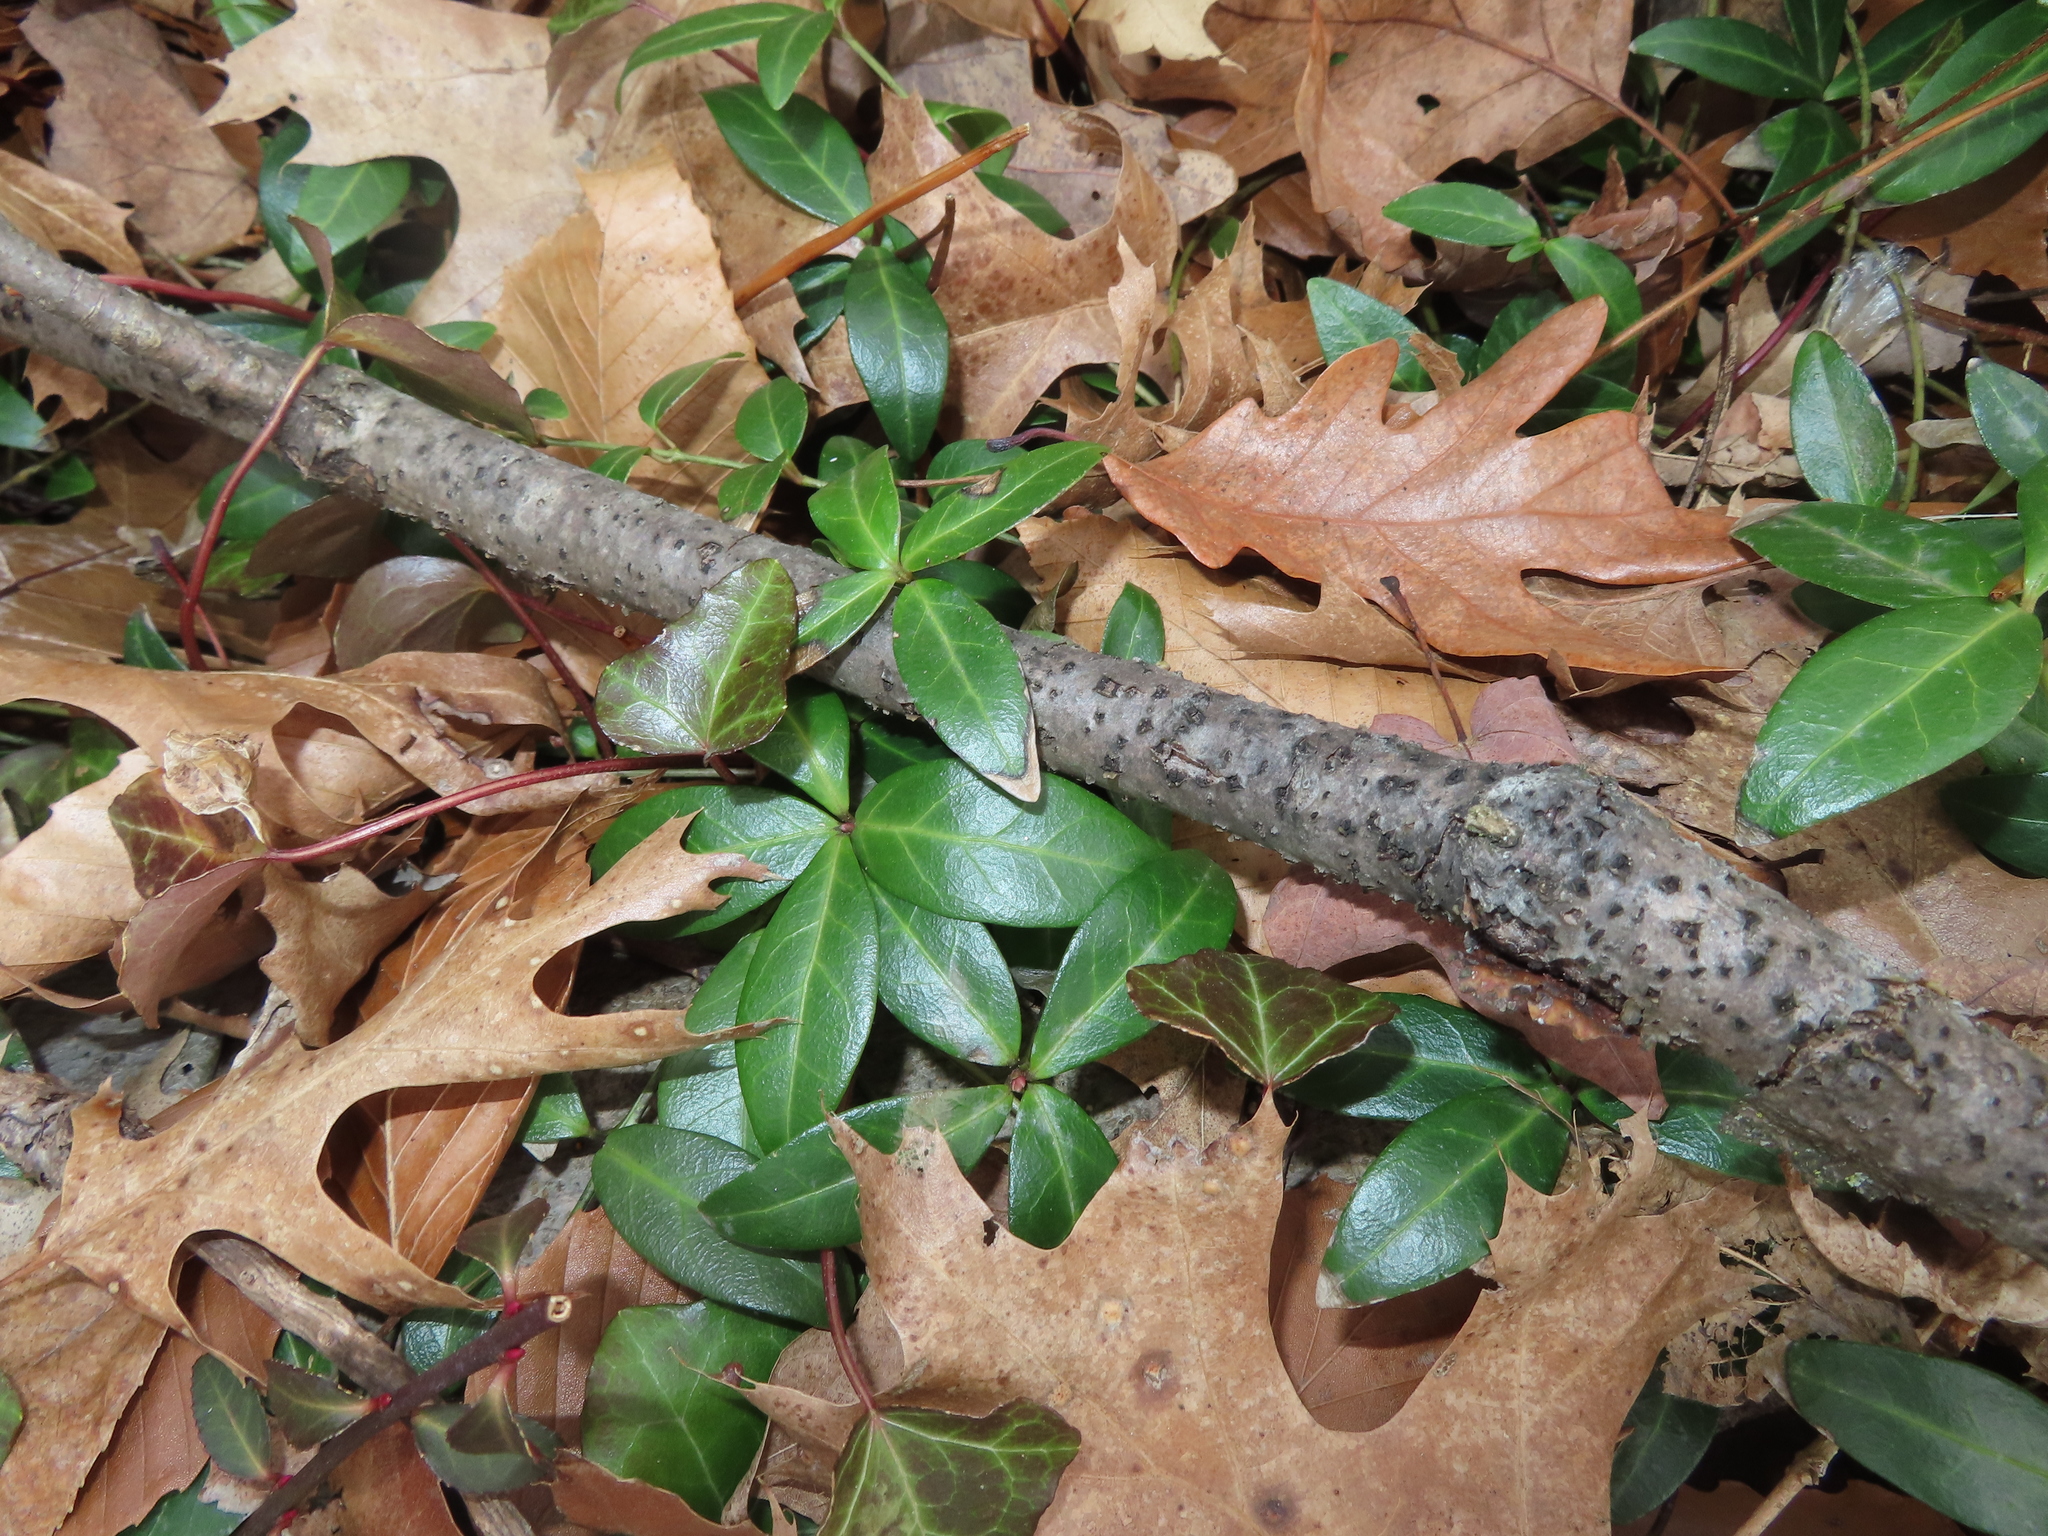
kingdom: Plantae
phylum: Tracheophyta
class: Magnoliopsida
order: Gentianales
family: Apocynaceae
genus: Vinca
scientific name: Vinca minor
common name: Lesser periwinkle
